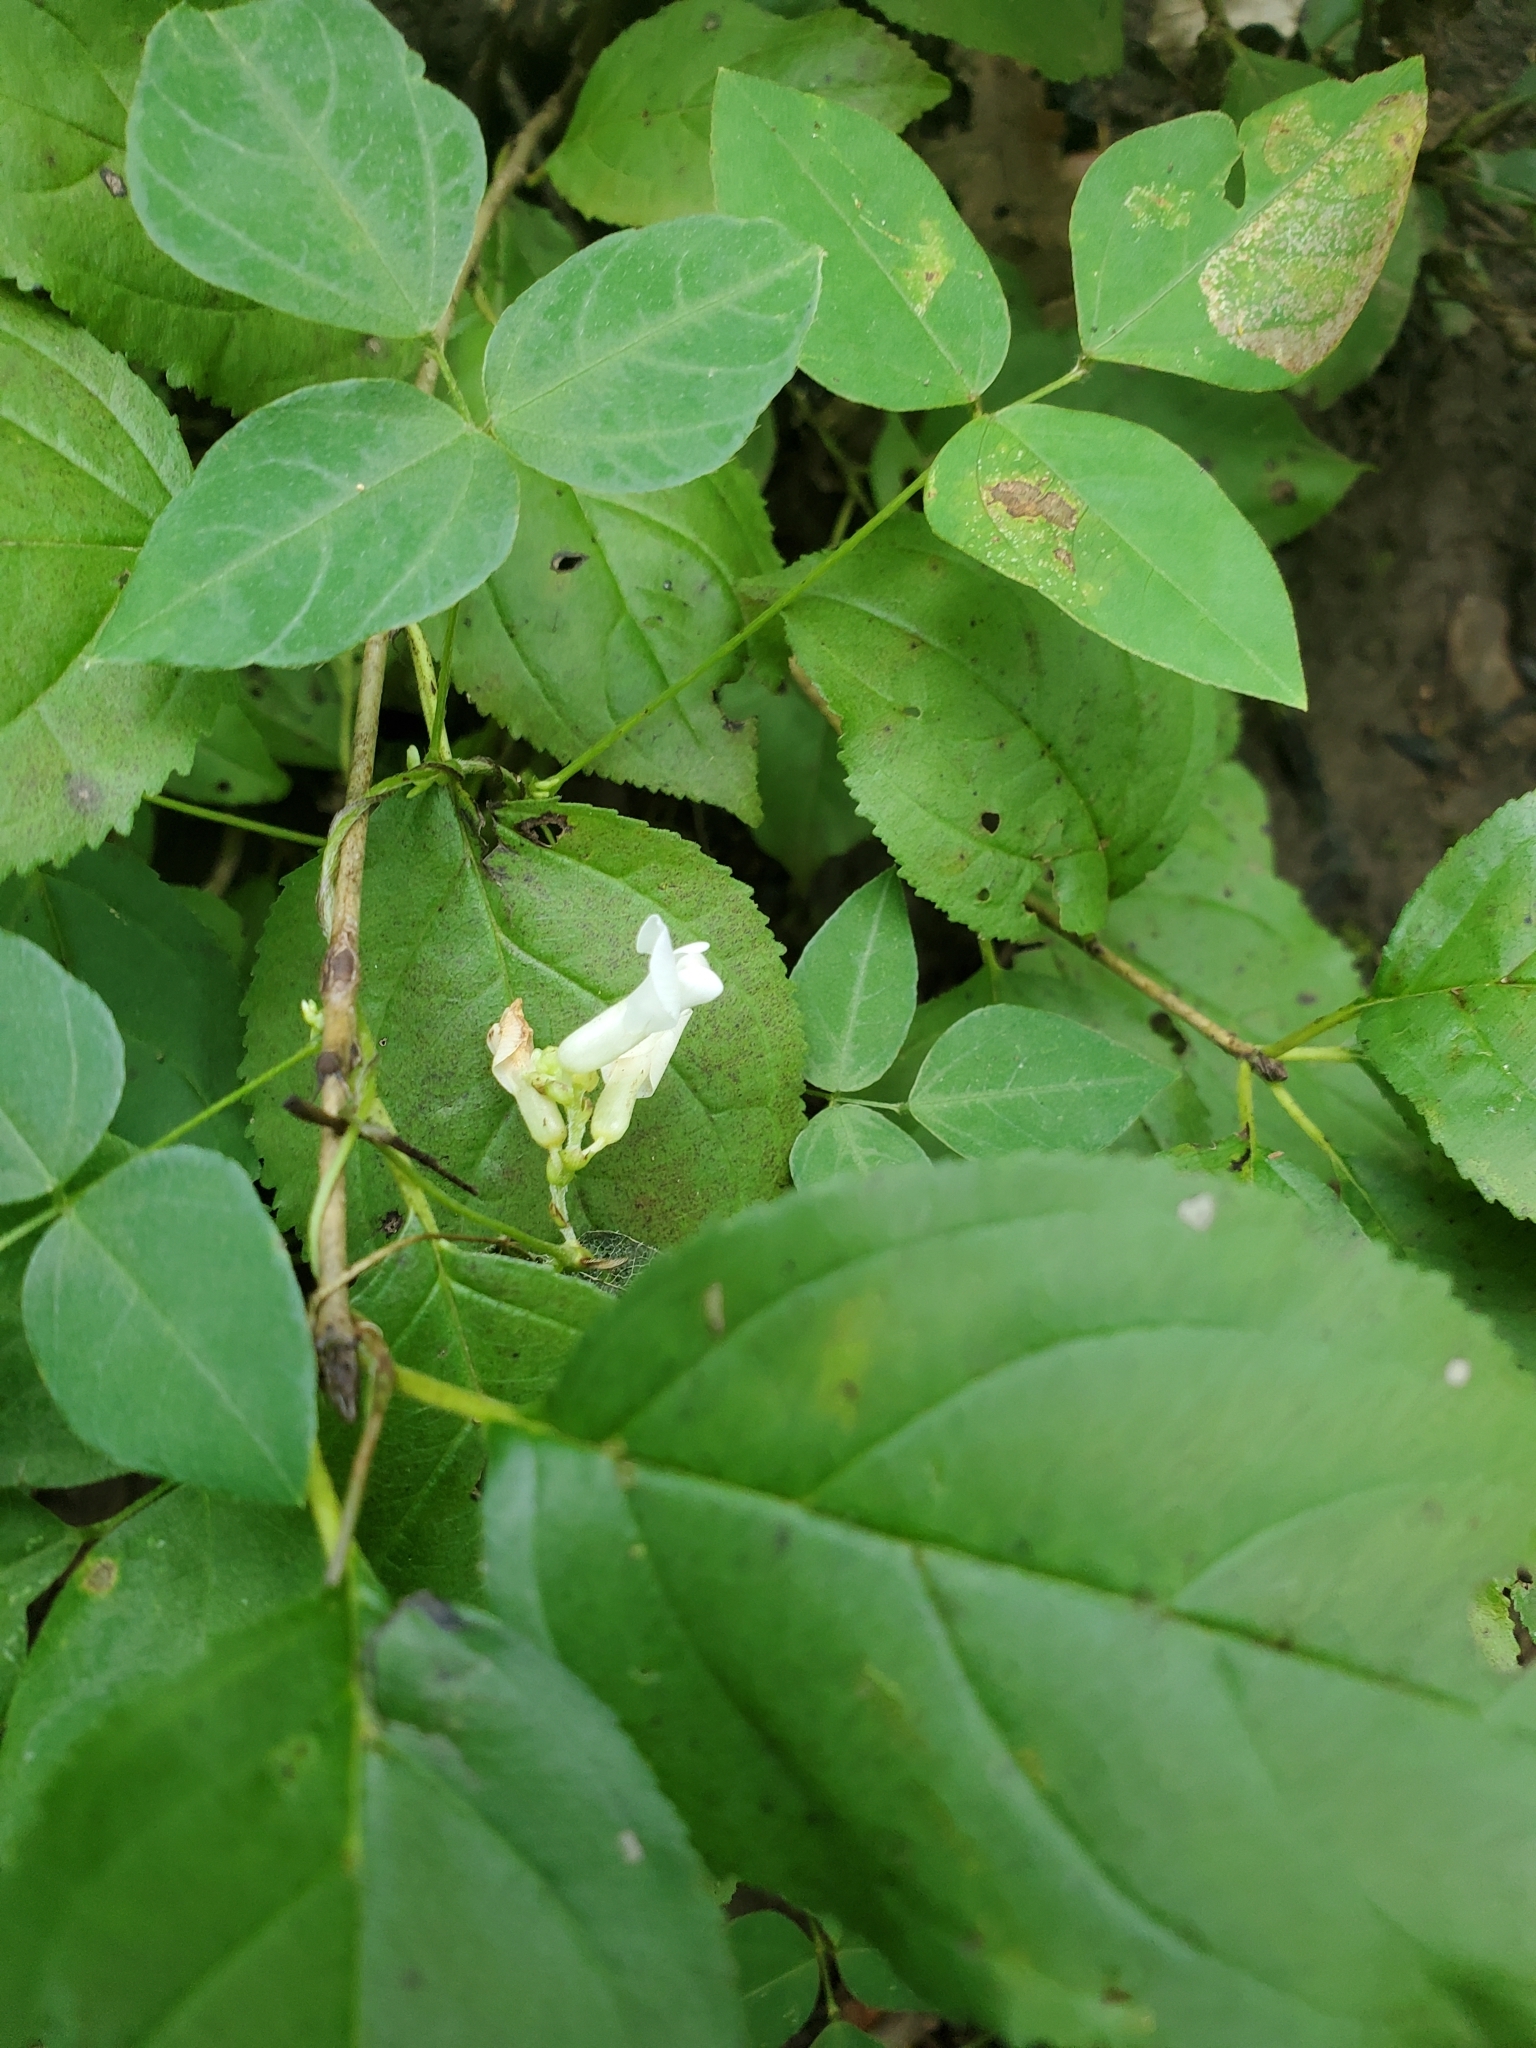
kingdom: Plantae
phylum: Tracheophyta
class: Magnoliopsida
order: Fabales
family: Fabaceae
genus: Amphicarpaea
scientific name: Amphicarpaea bracteata
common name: American hog peanut
